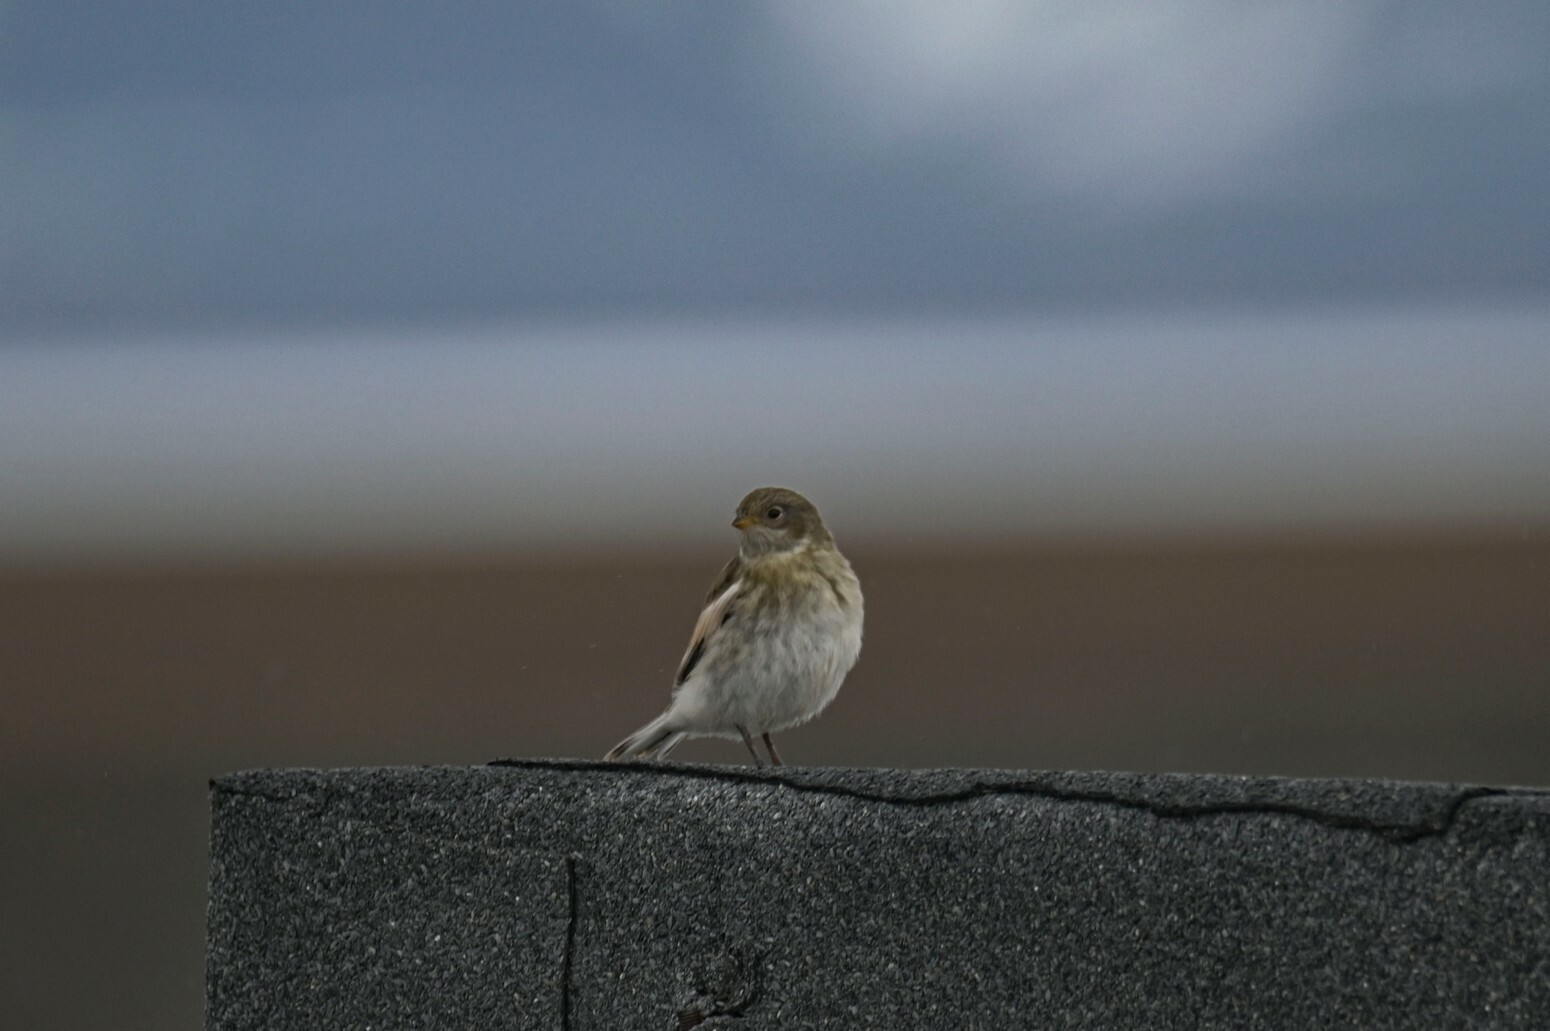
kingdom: Animalia
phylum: Chordata
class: Aves
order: Passeriformes
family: Calcariidae
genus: Plectrophenax
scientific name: Plectrophenax nivalis
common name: Snow bunting
